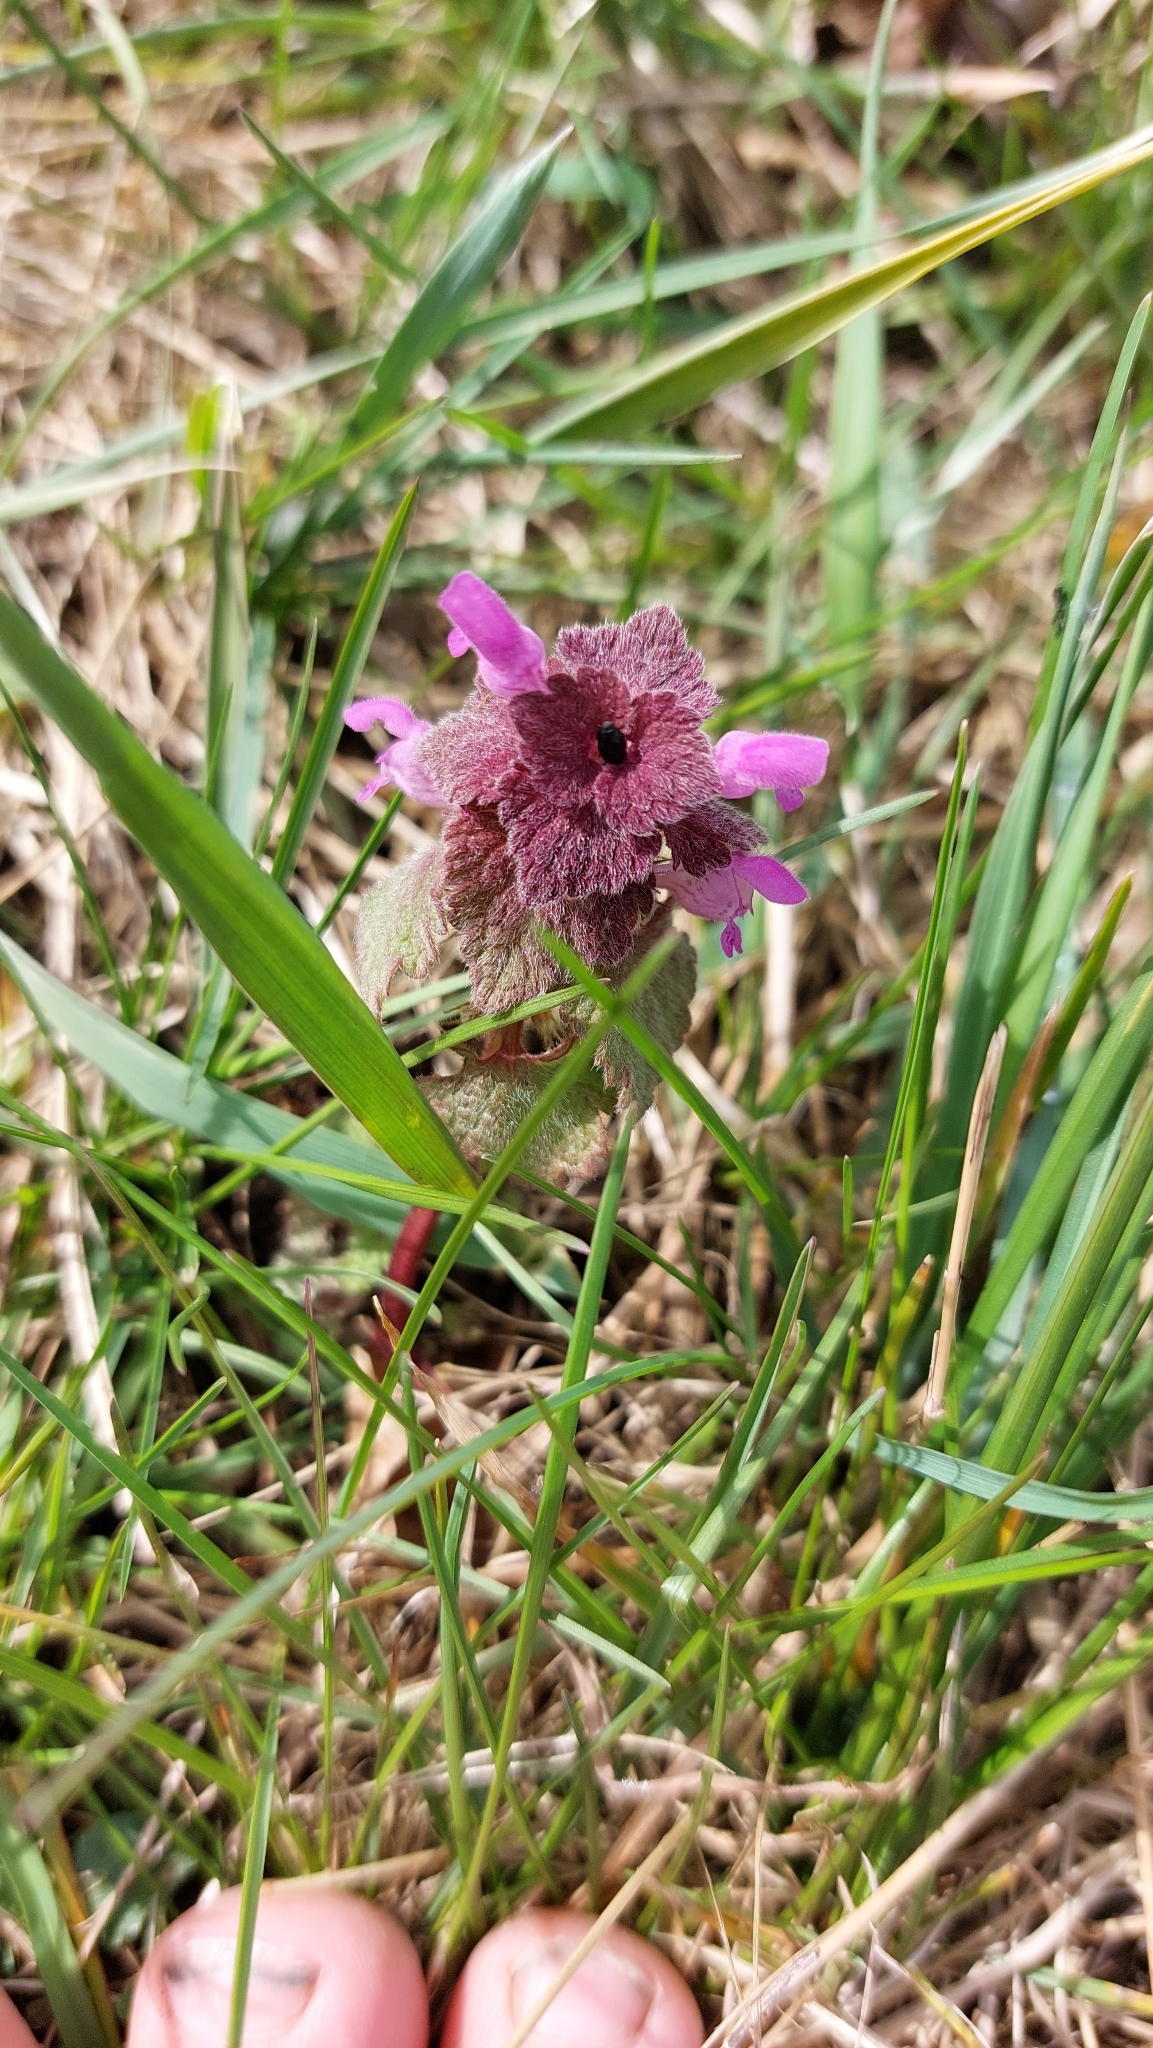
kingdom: Plantae
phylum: Tracheophyta
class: Magnoliopsida
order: Lamiales
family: Lamiaceae
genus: Lamium
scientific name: Lamium purpureum
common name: Red dead-nettle
